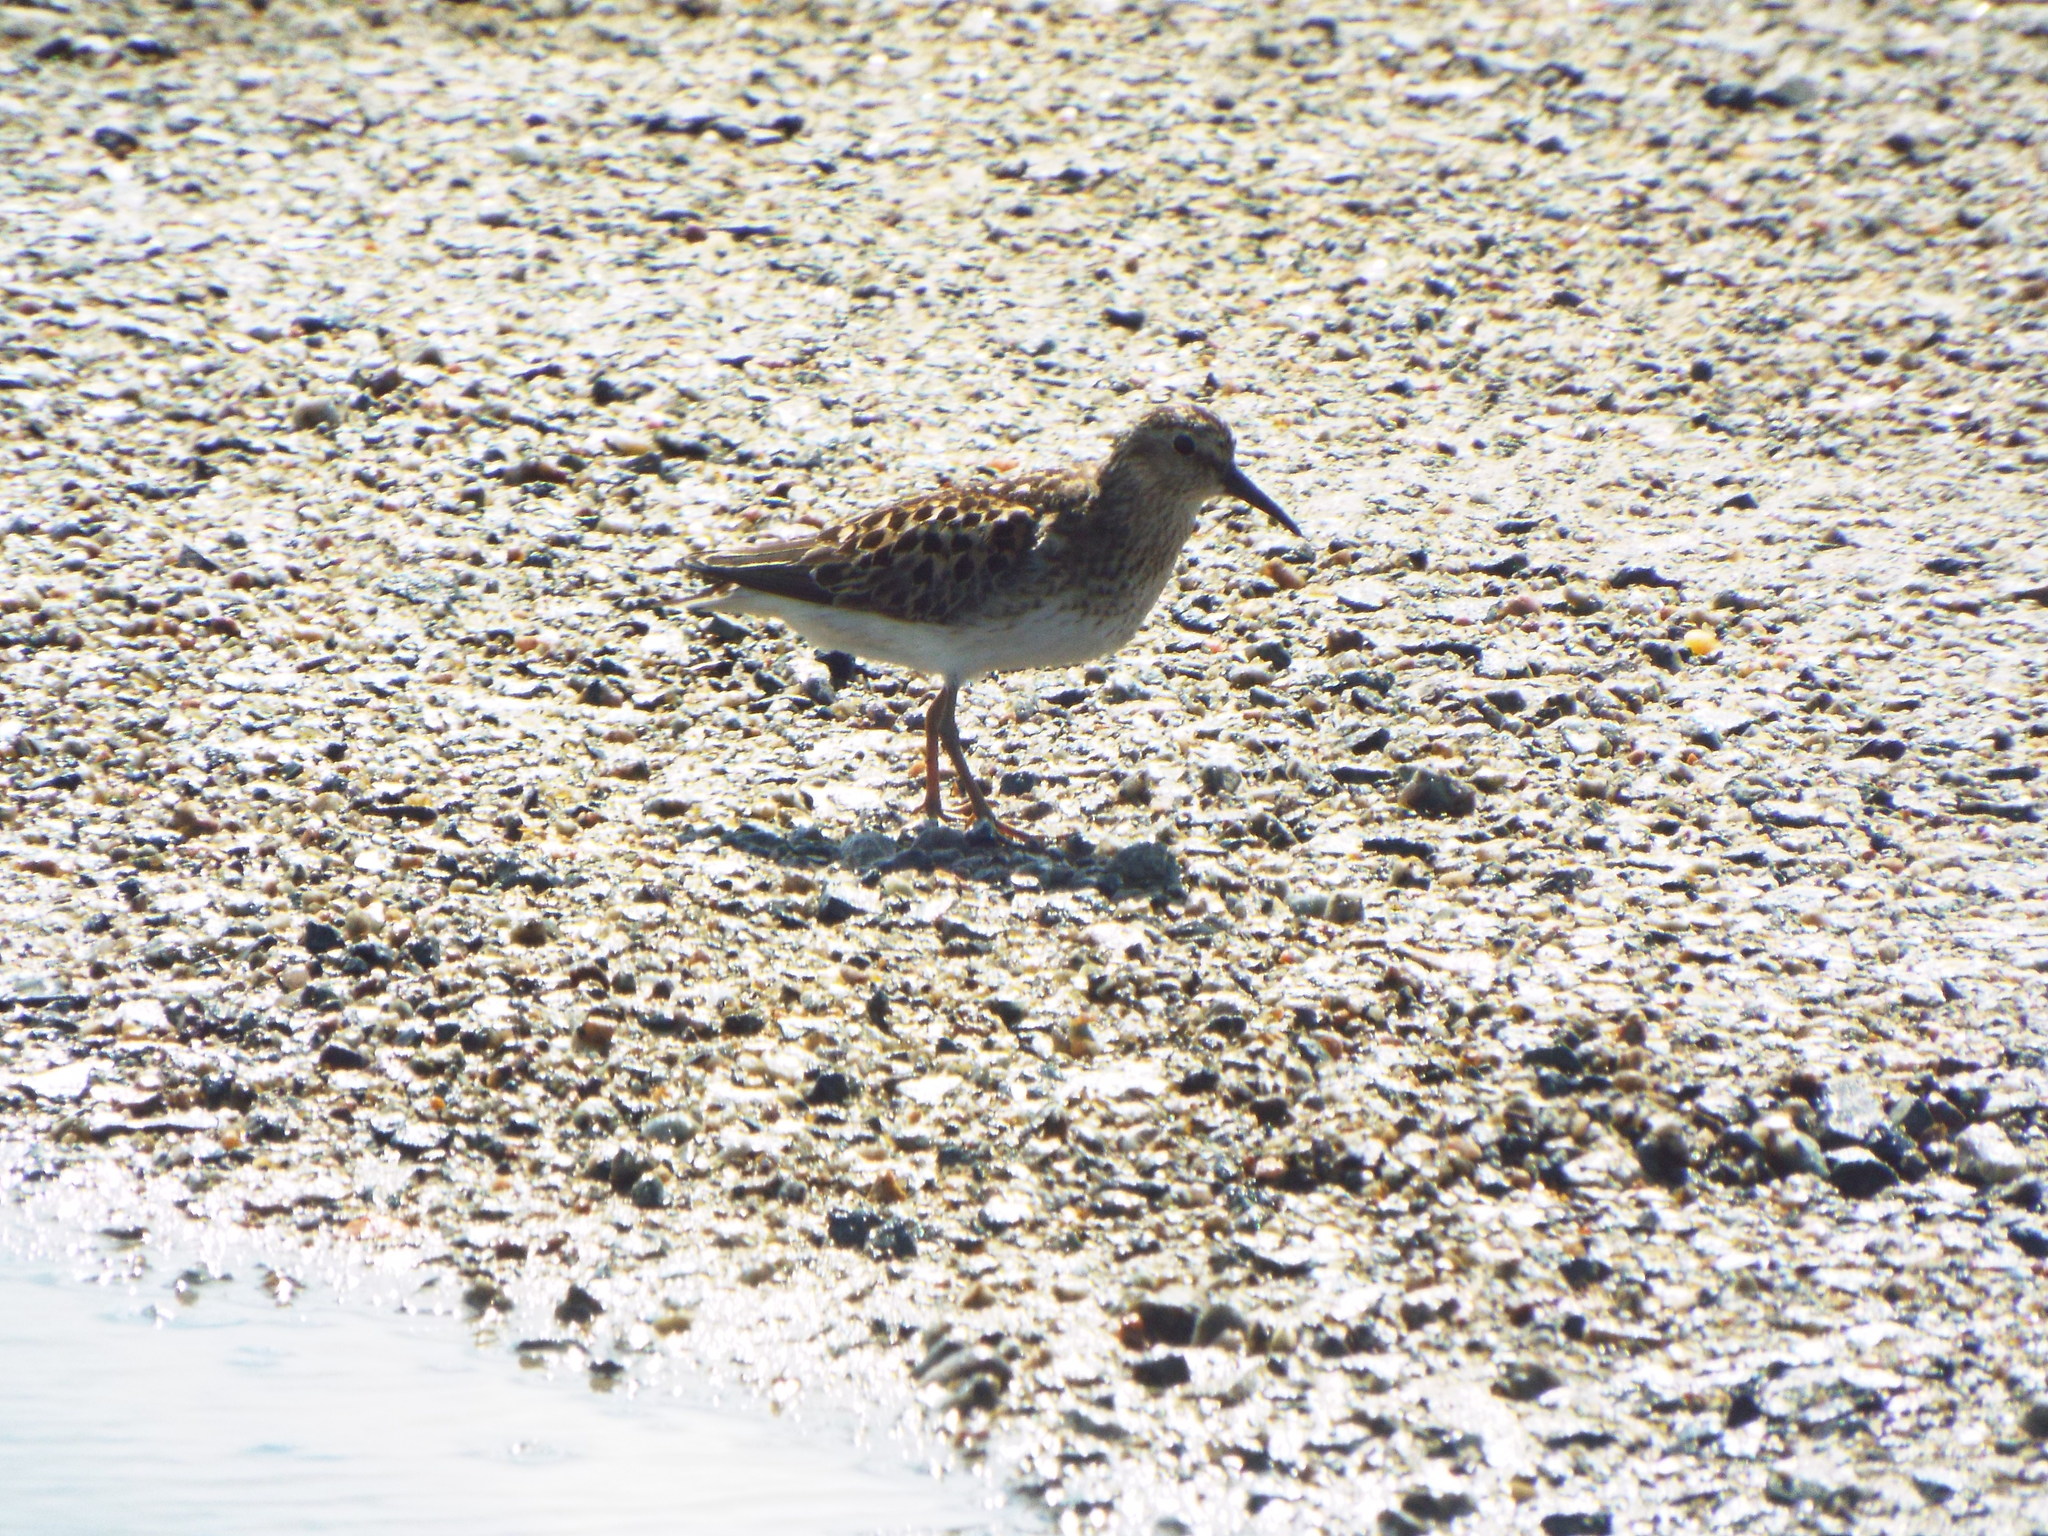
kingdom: Animalia
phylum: Chordata
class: Aves
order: Charadriiformes
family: Scolopacidae
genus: Calidris
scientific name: Calidris minutilla
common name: Least sandpiper
